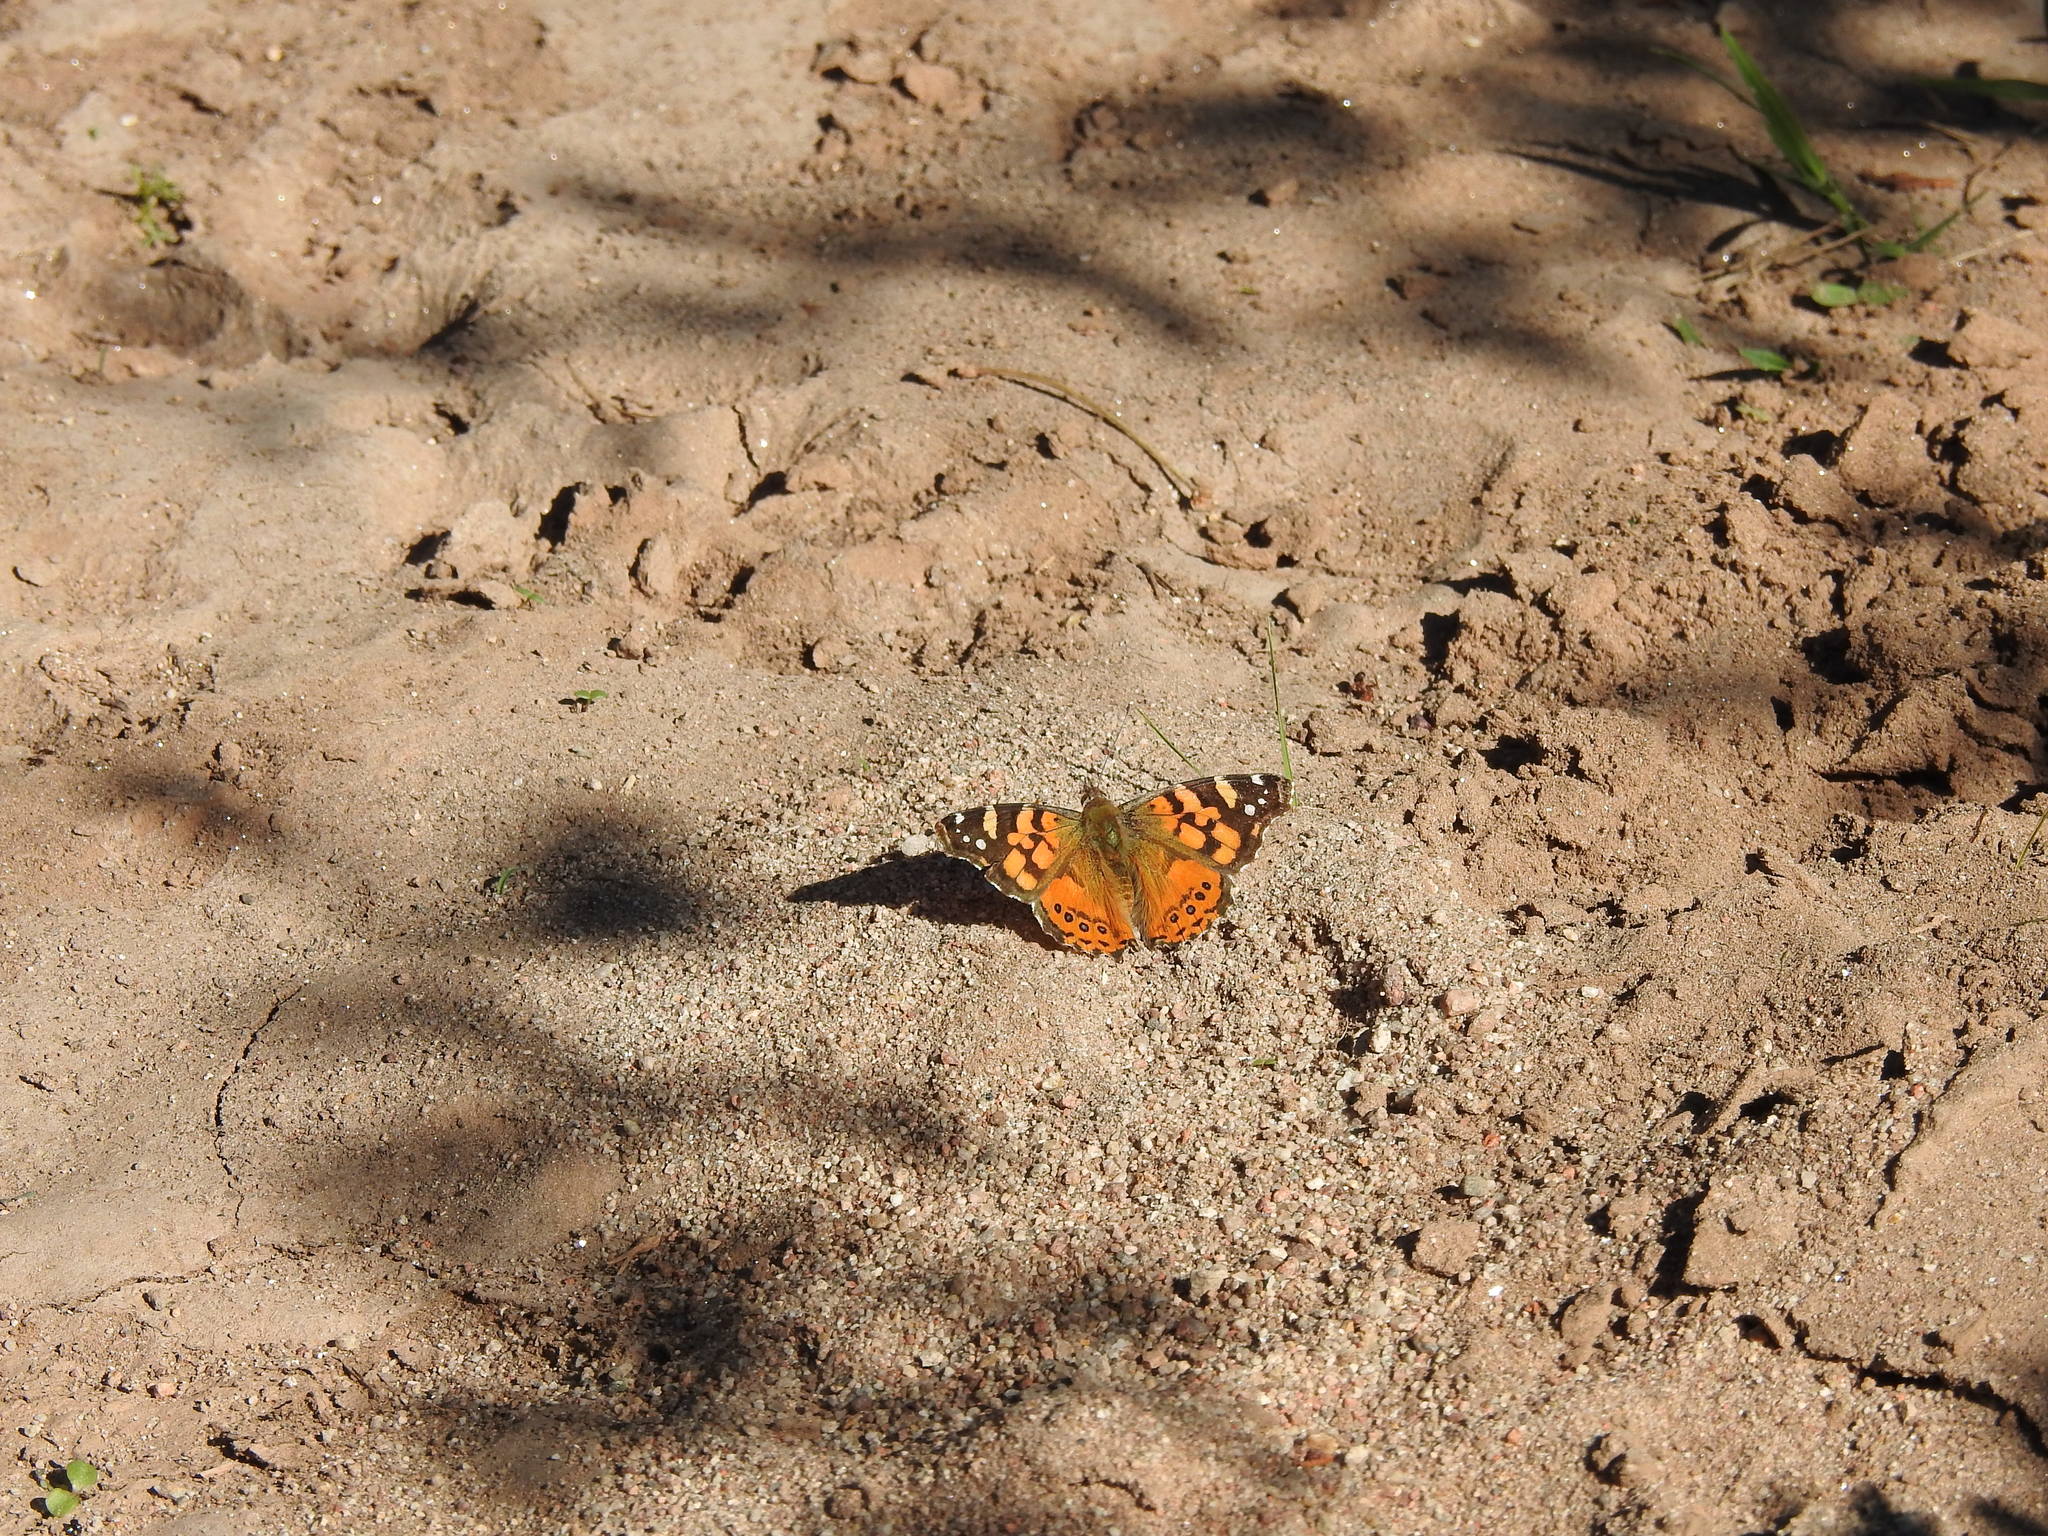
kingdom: Animalia
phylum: Arthropoda
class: Insecta
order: Lepidoptera
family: Nymphalidae
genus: Vanessa
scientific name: Vanessa carye
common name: Subtropical lady
